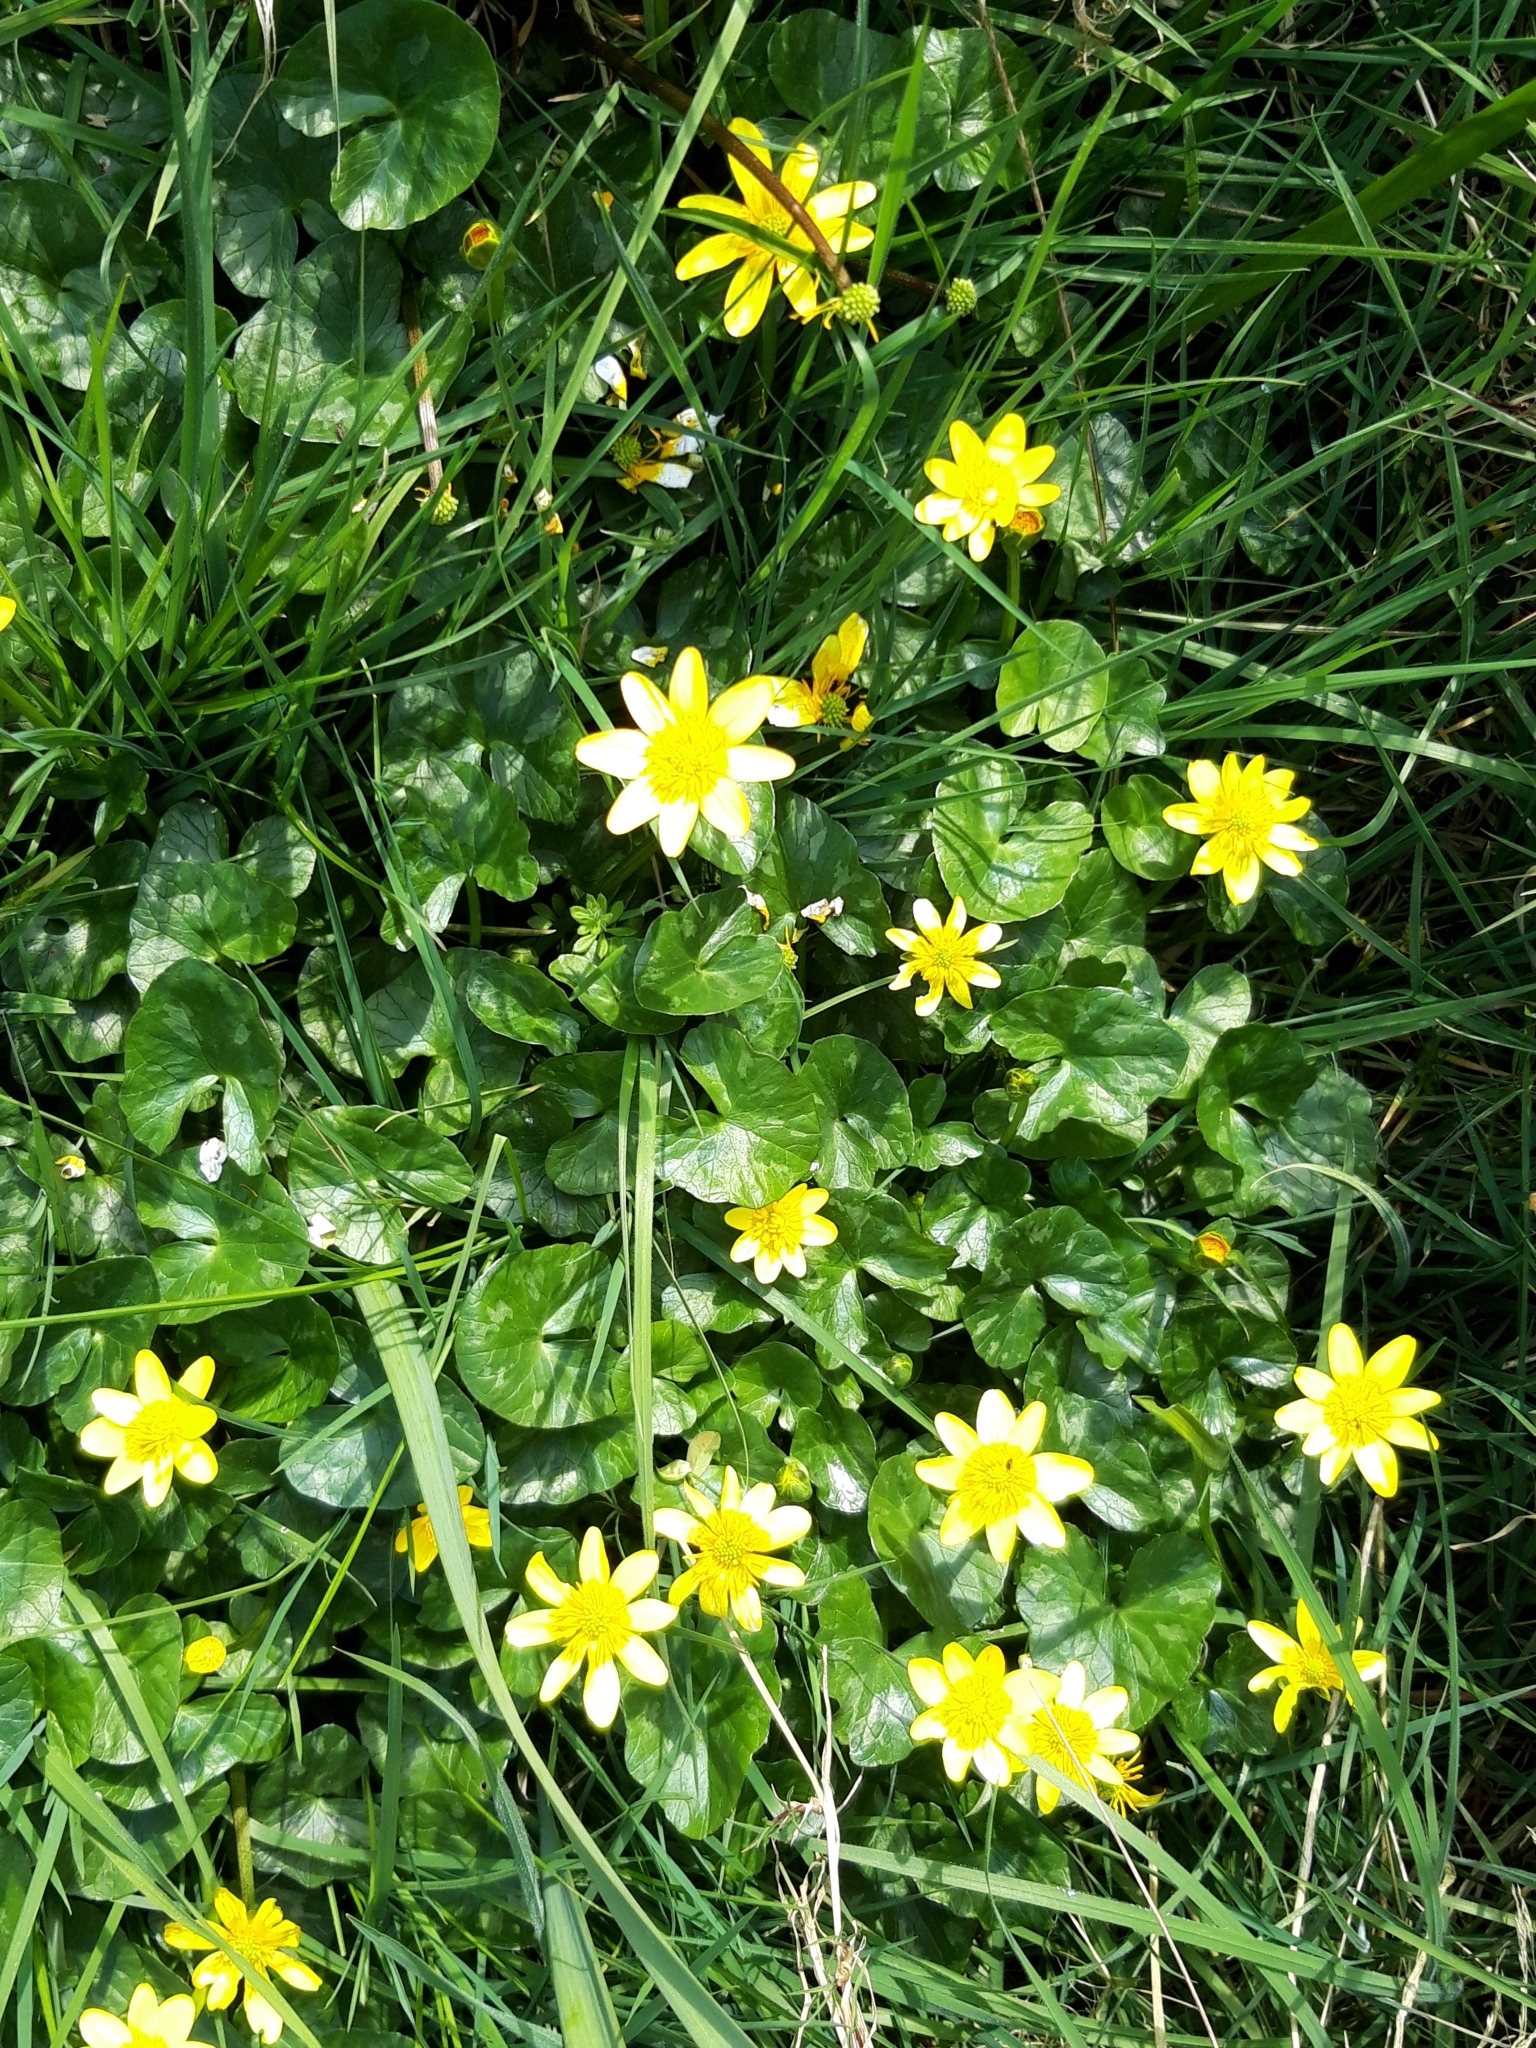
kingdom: Plantae
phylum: Tracheophyta
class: Magnoliopsida
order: Ranunculales
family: Ranunculaceae
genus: Ficaria
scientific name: Ficaria verna
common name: Lesser celandine
